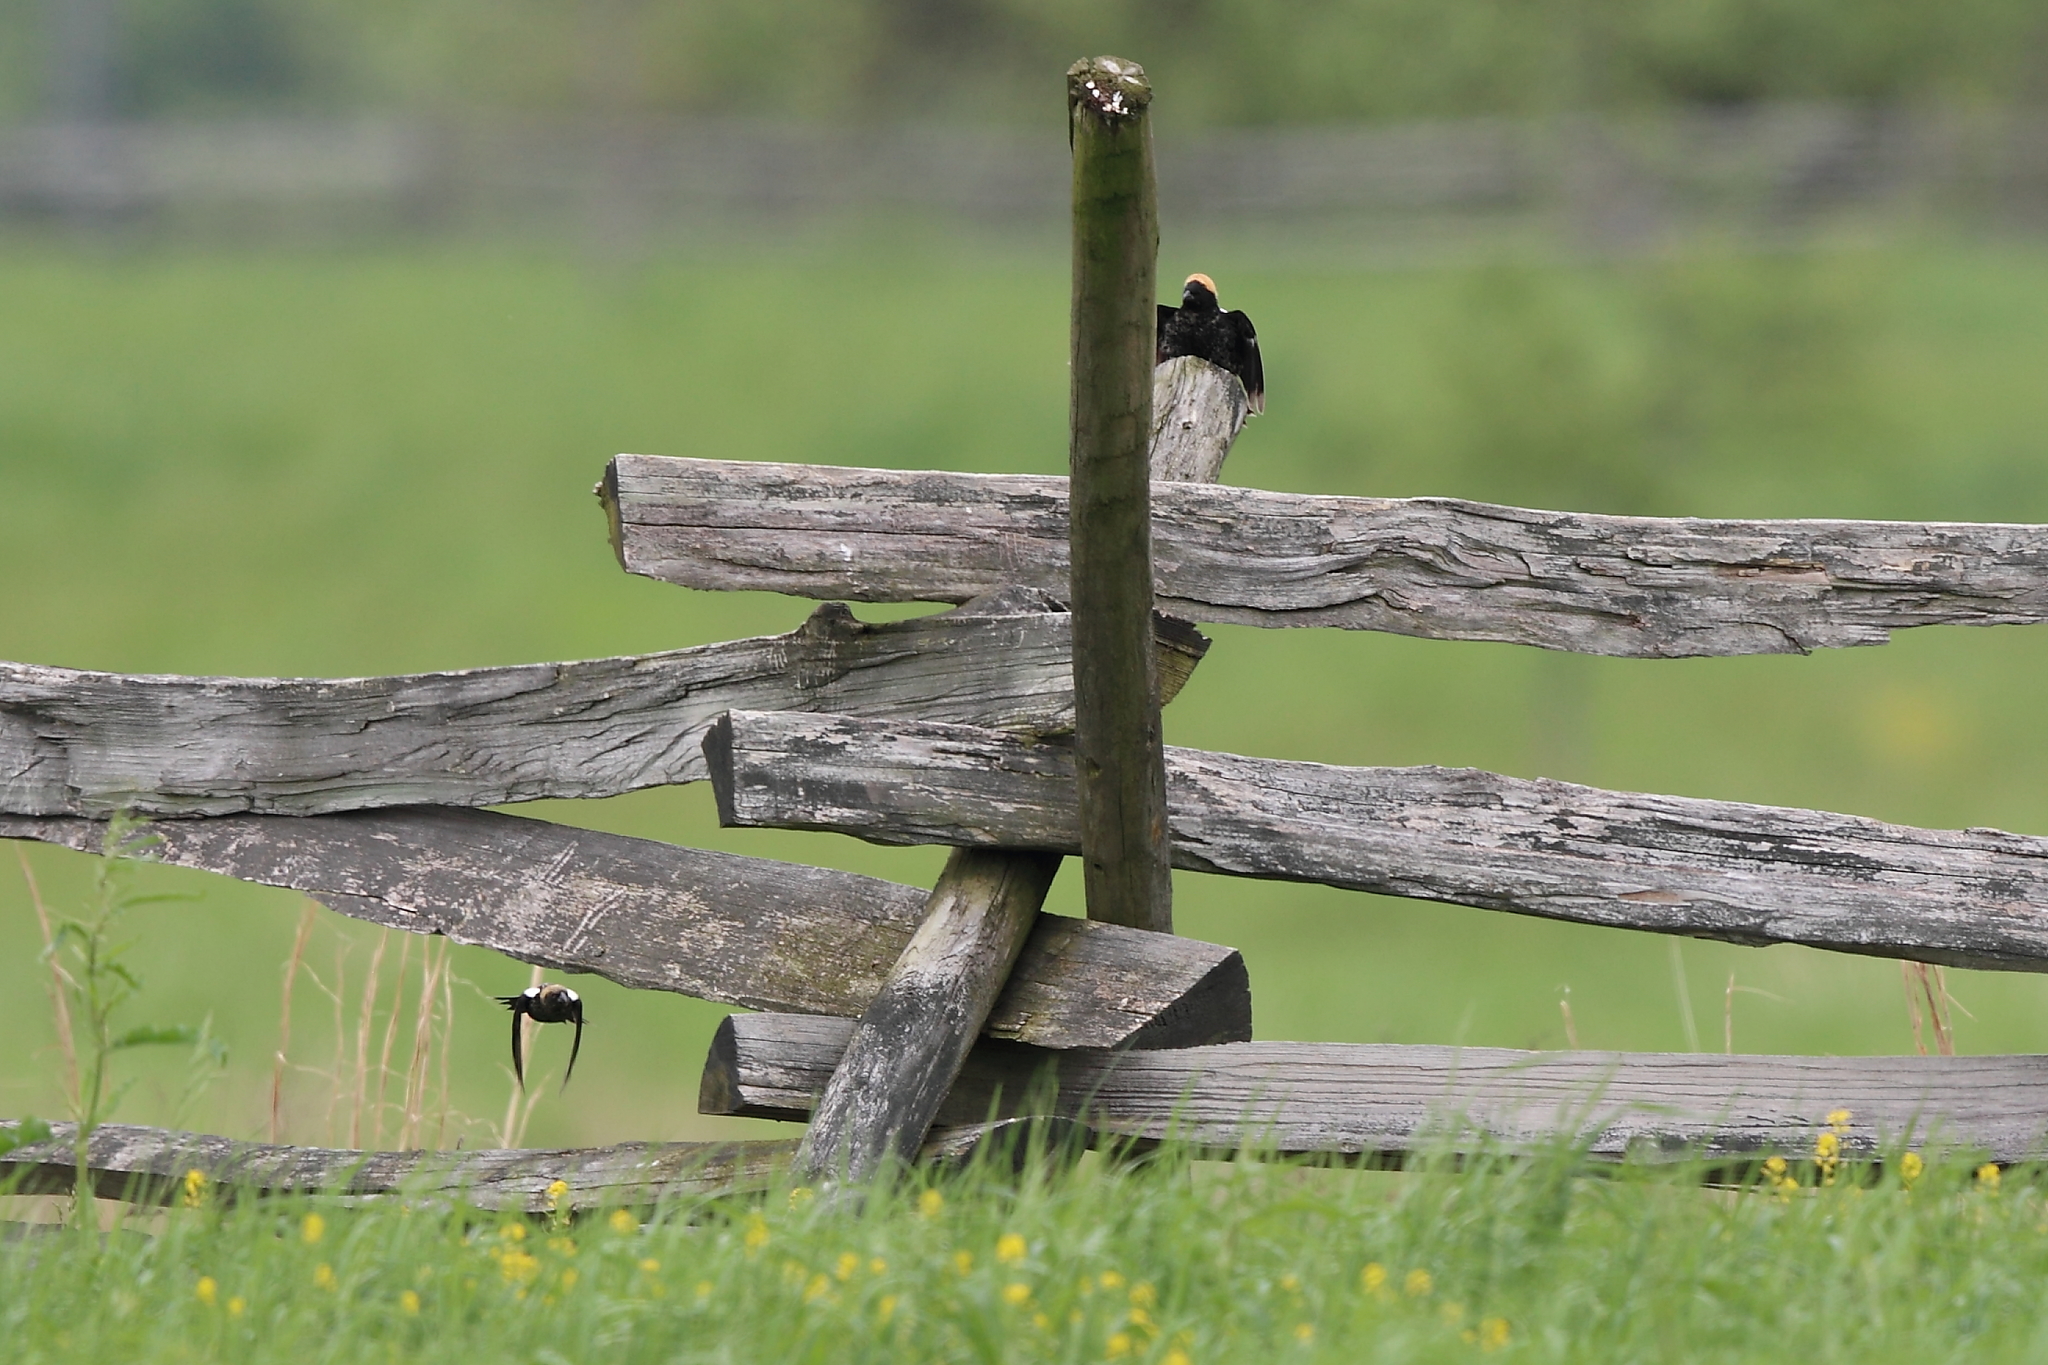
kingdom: Animalia
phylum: Chordata
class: Aves
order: Passeriformes
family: Icteridae
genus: Dolichonyx
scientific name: Dolichonyx oryzivorus
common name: Bobolink
